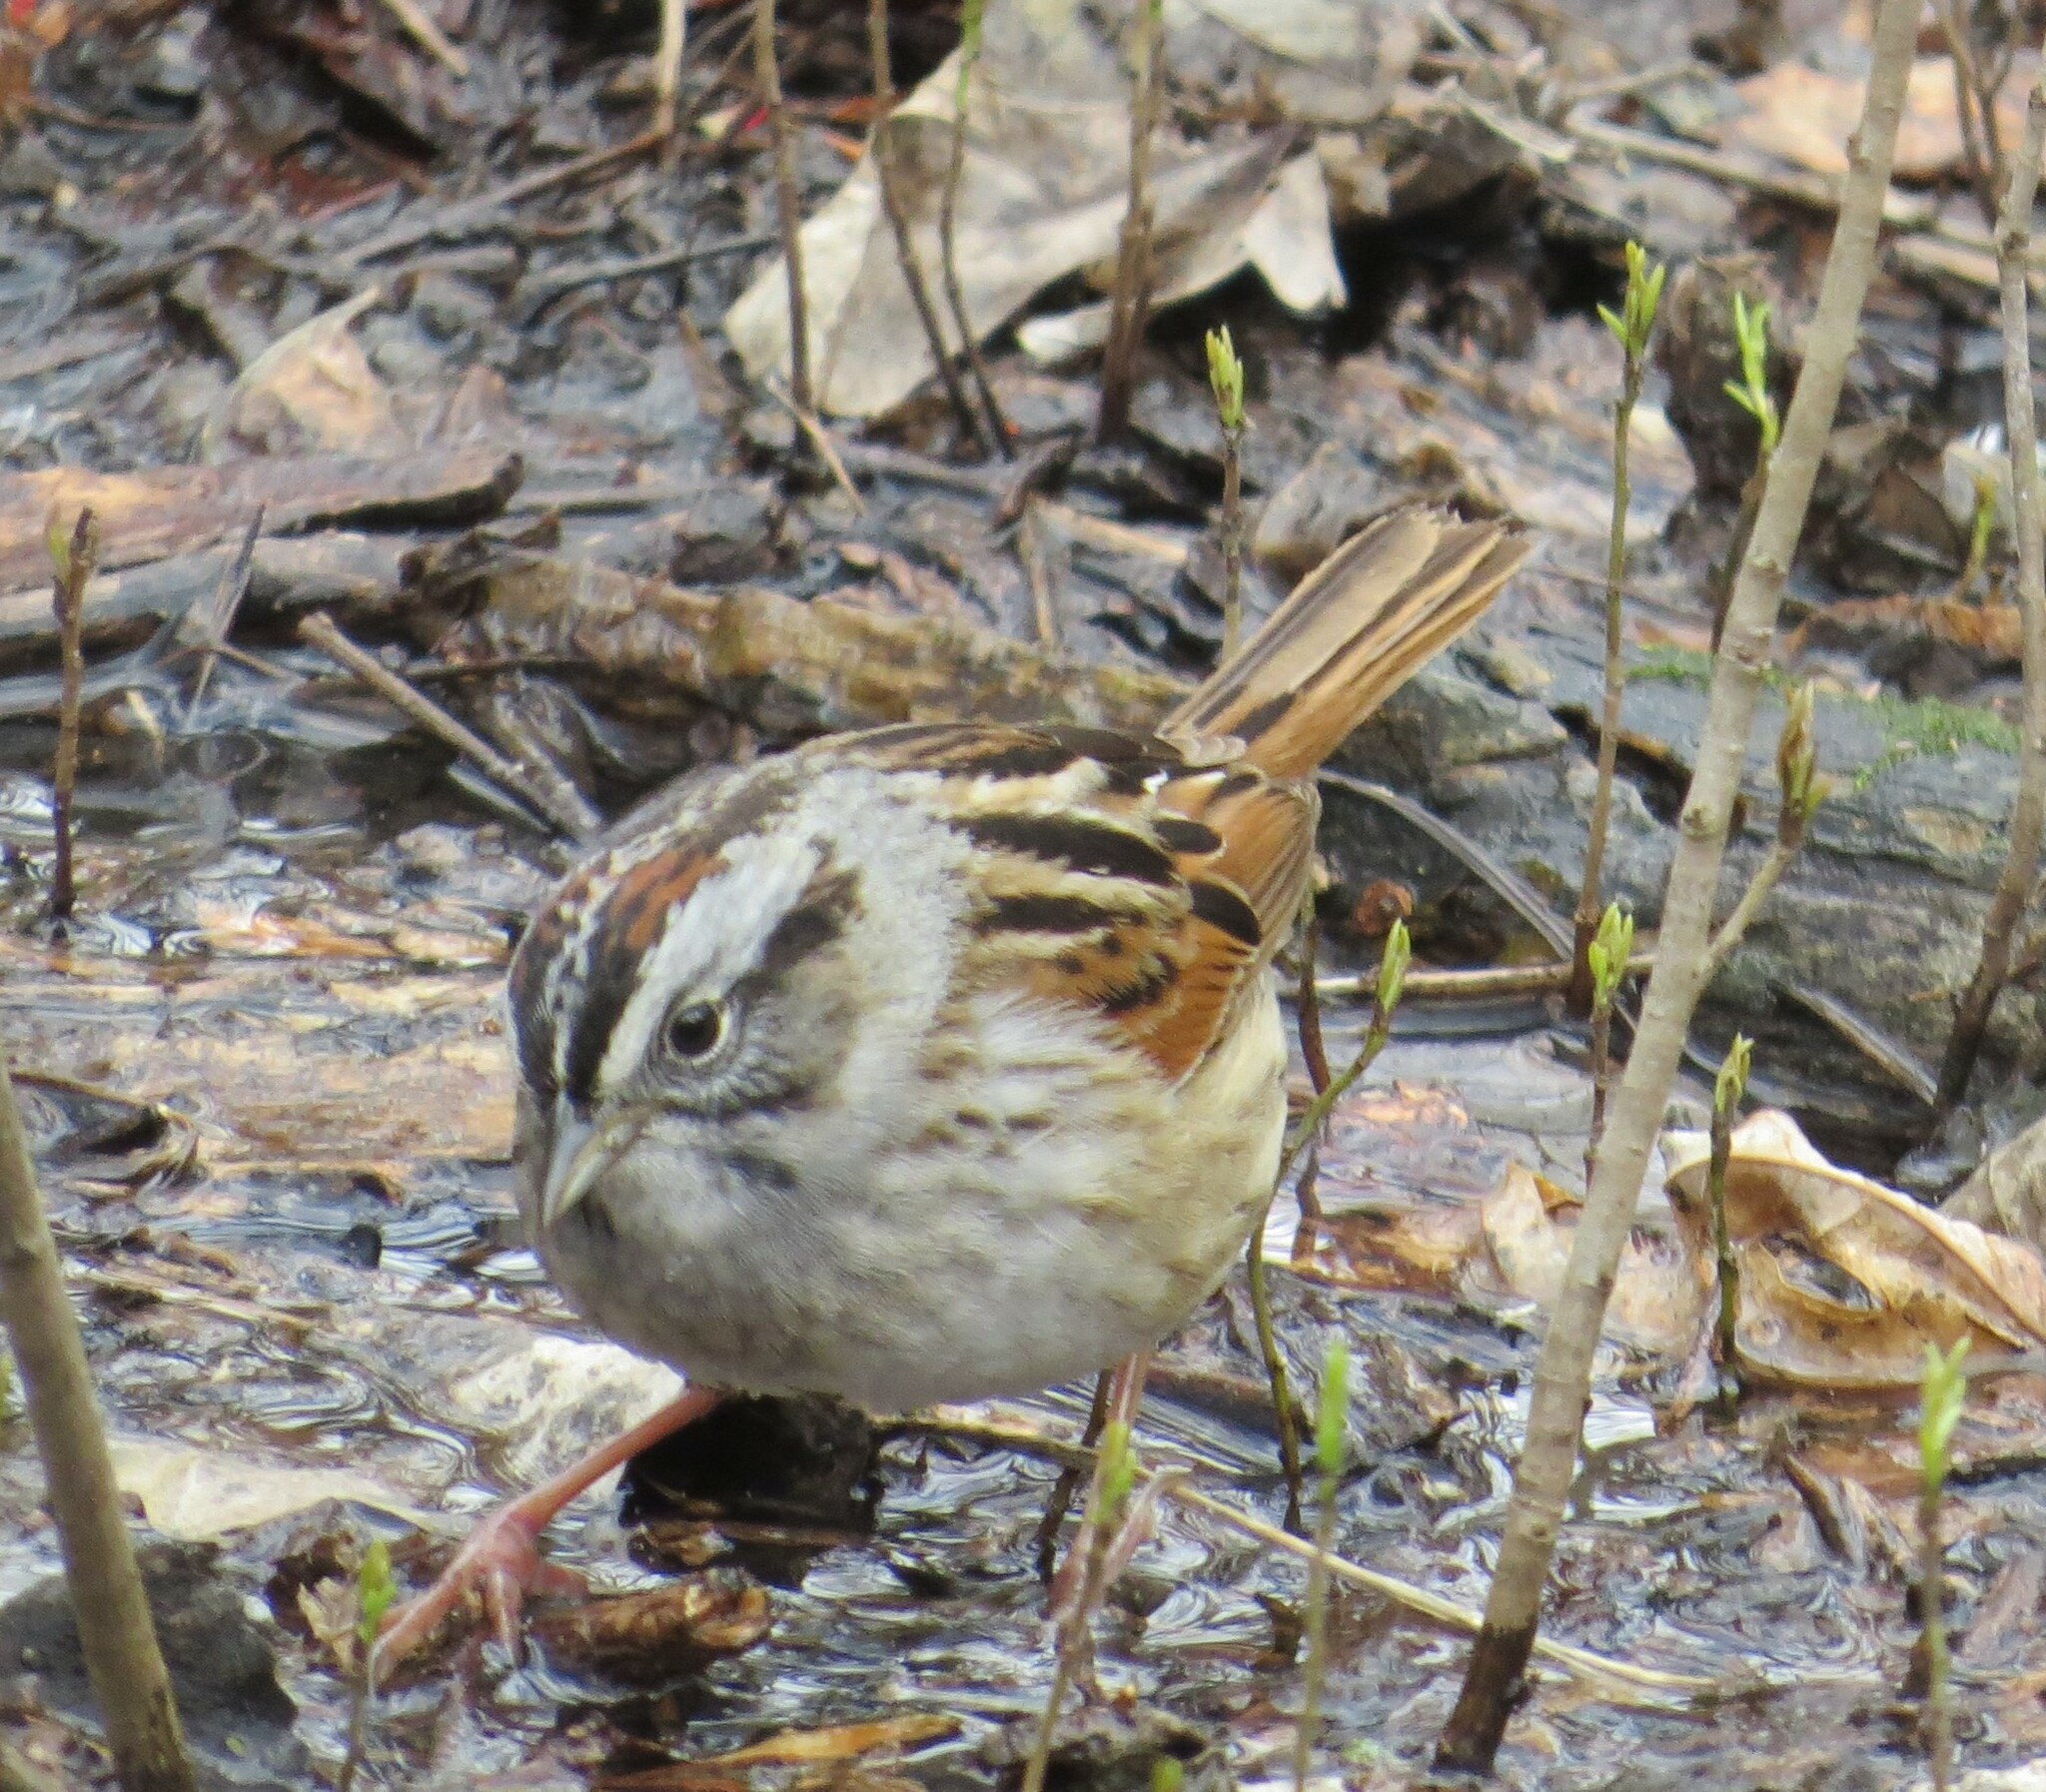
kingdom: Animalia
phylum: Chordata
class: Aves
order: Passeriformes
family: Passerellidae
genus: Melospiza
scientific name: Melospiza georgiana
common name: Swamp sparrow
